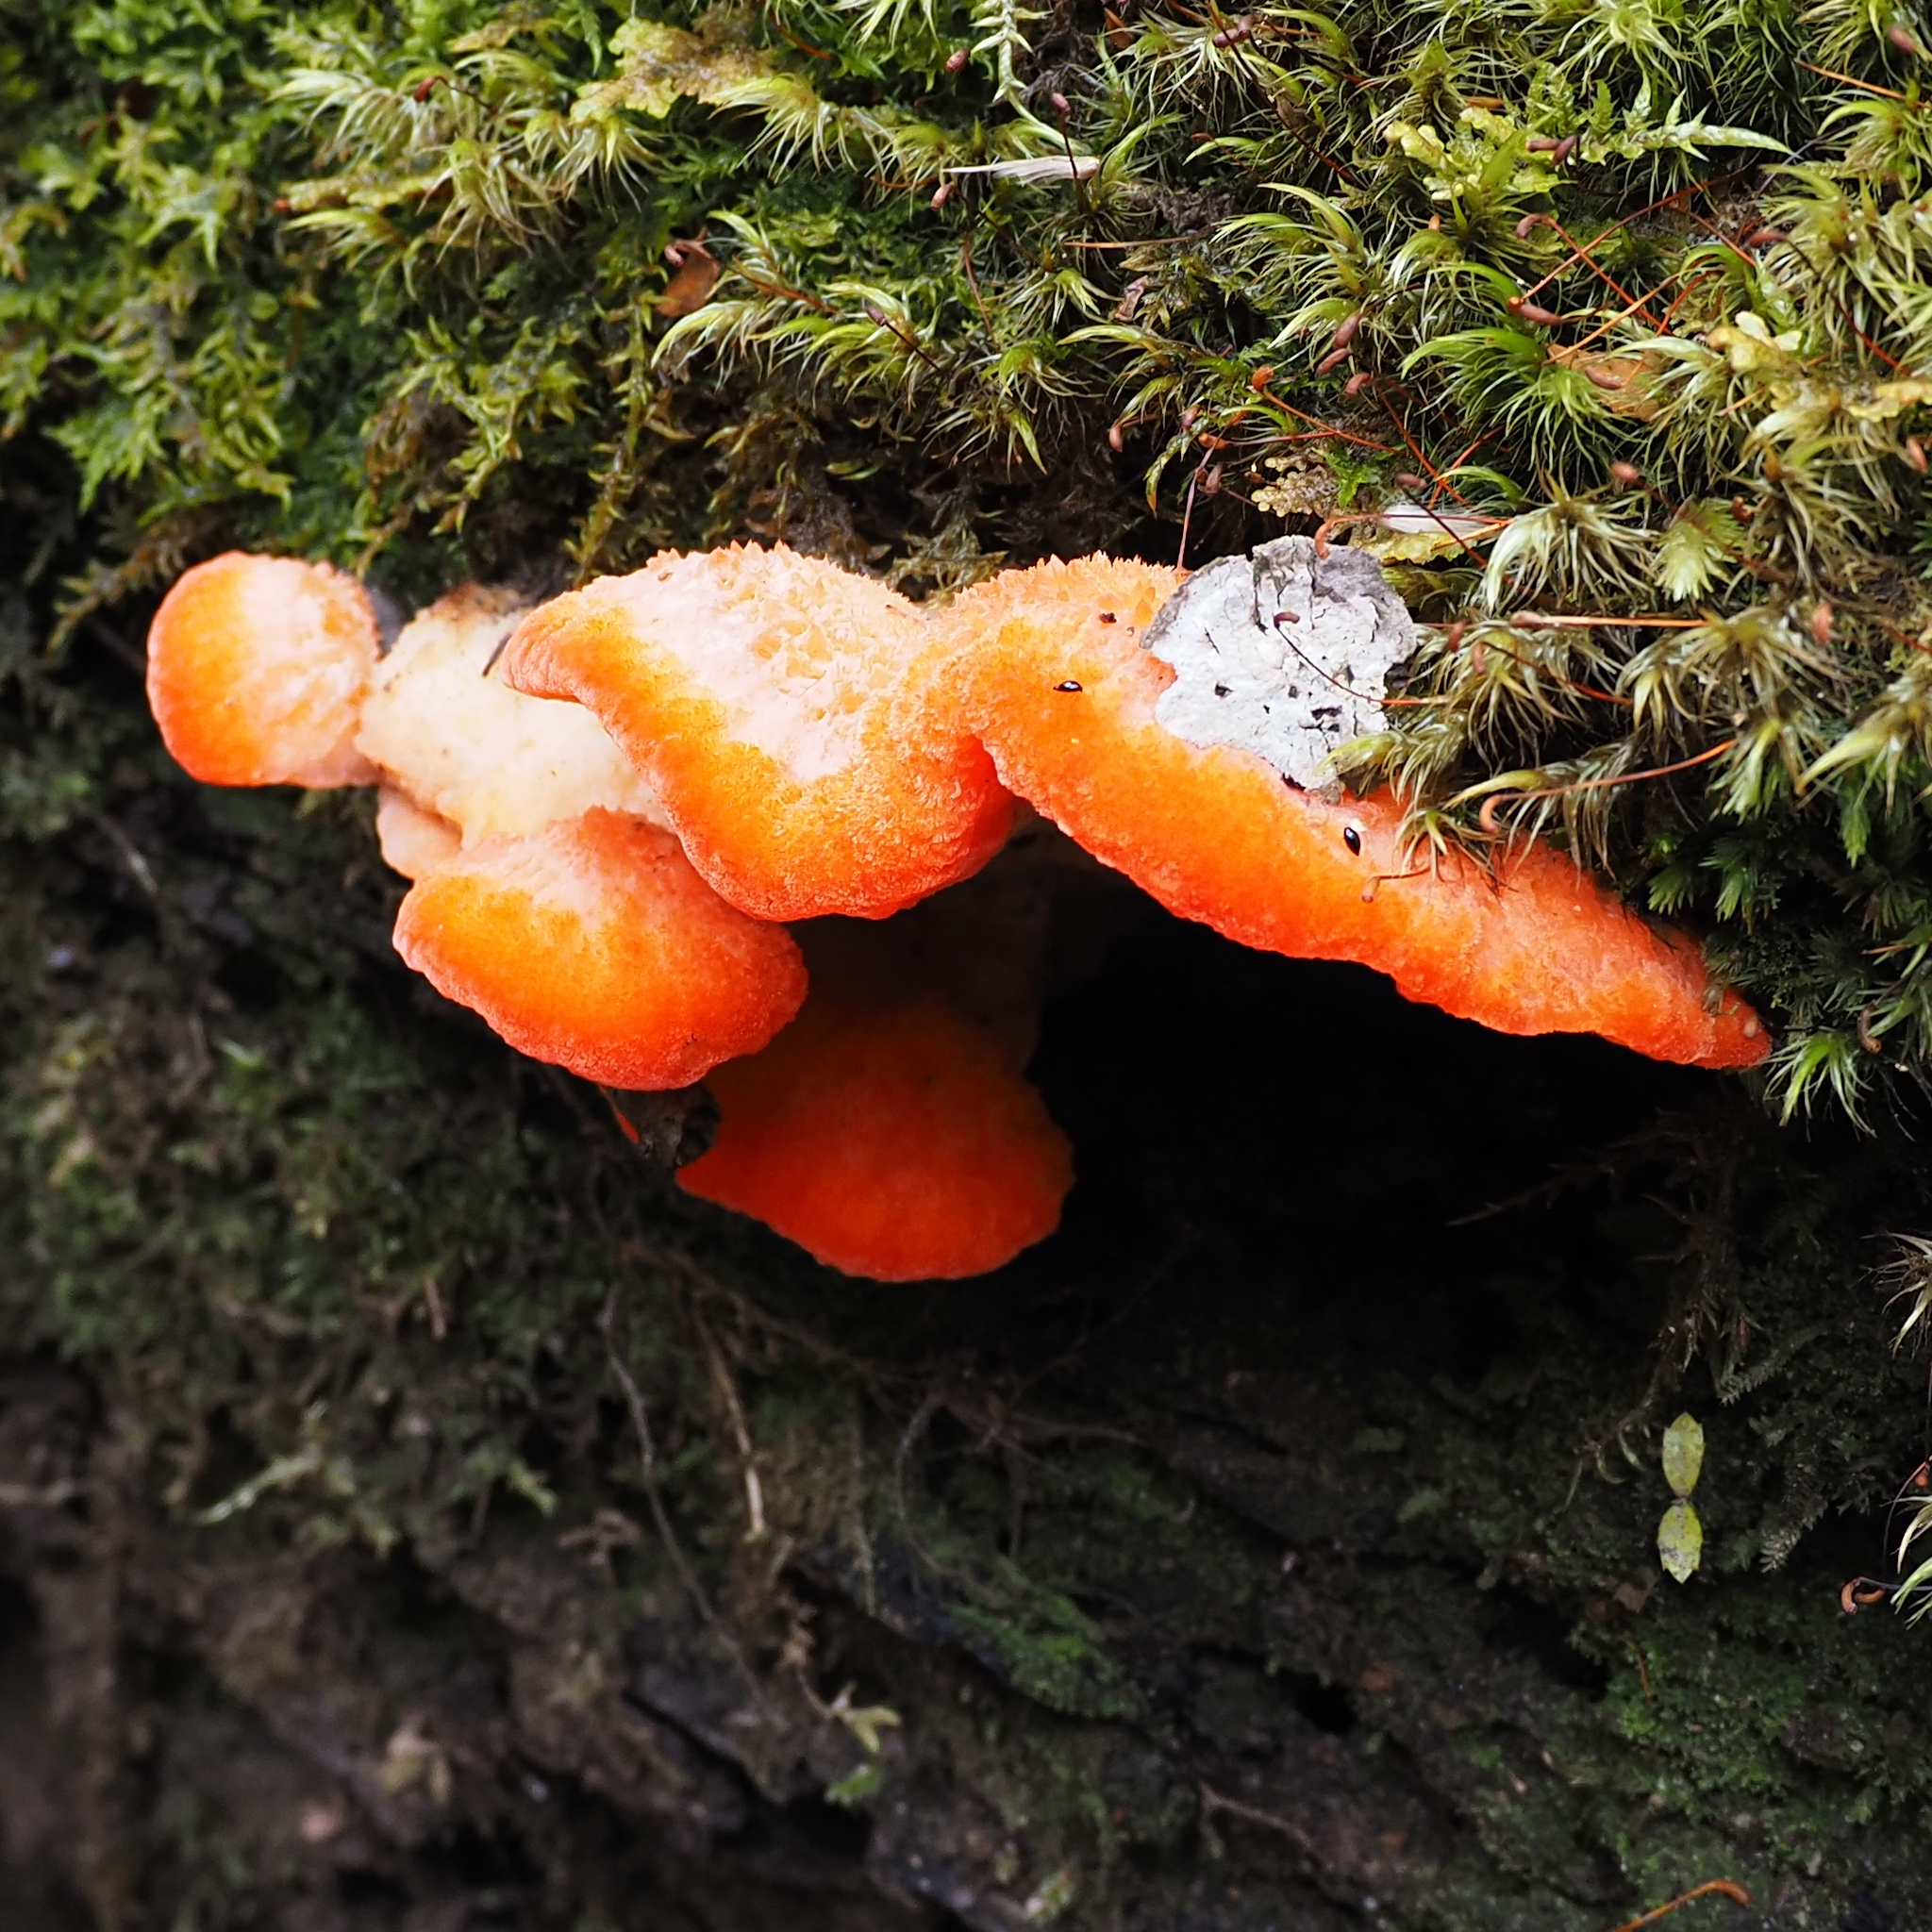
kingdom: Fungi
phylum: Basidiomycota
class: Agaricomycetes
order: Polyporales
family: Incrustoporiaceae
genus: Tyromyces
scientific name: Tyromyces pulcherrimus
